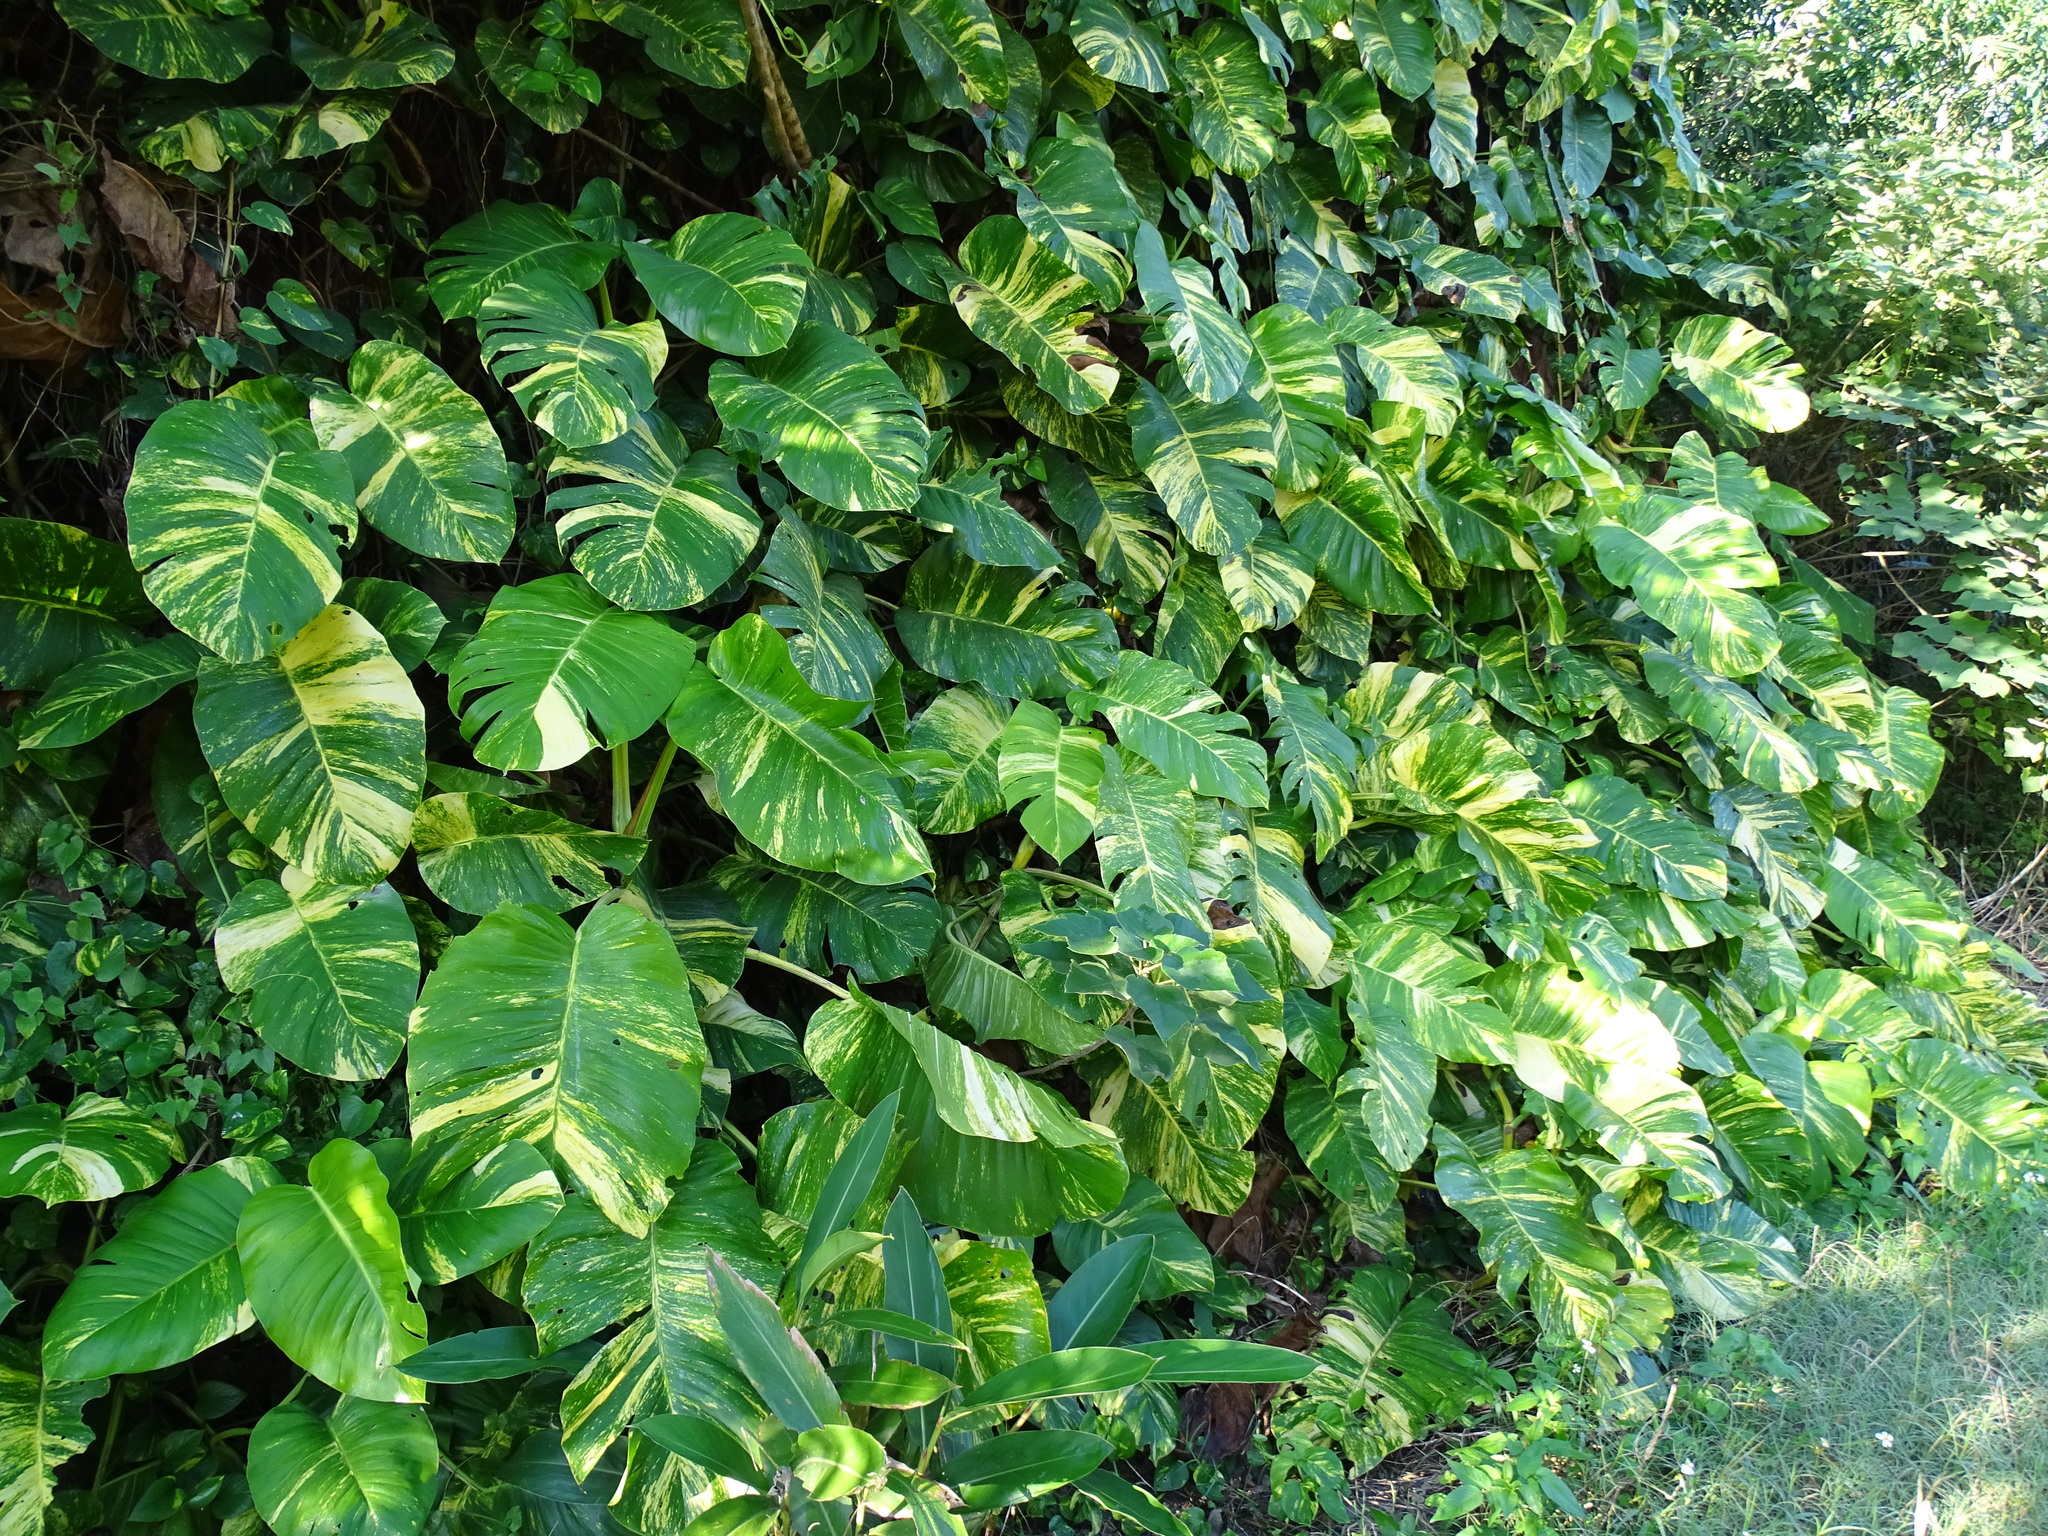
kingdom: Plantae
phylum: Tracheophyta
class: Liliopsida
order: Alismatales
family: Araceae
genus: Epipremnum
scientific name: Epipremnum aureum
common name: Golden hunter's-robe
